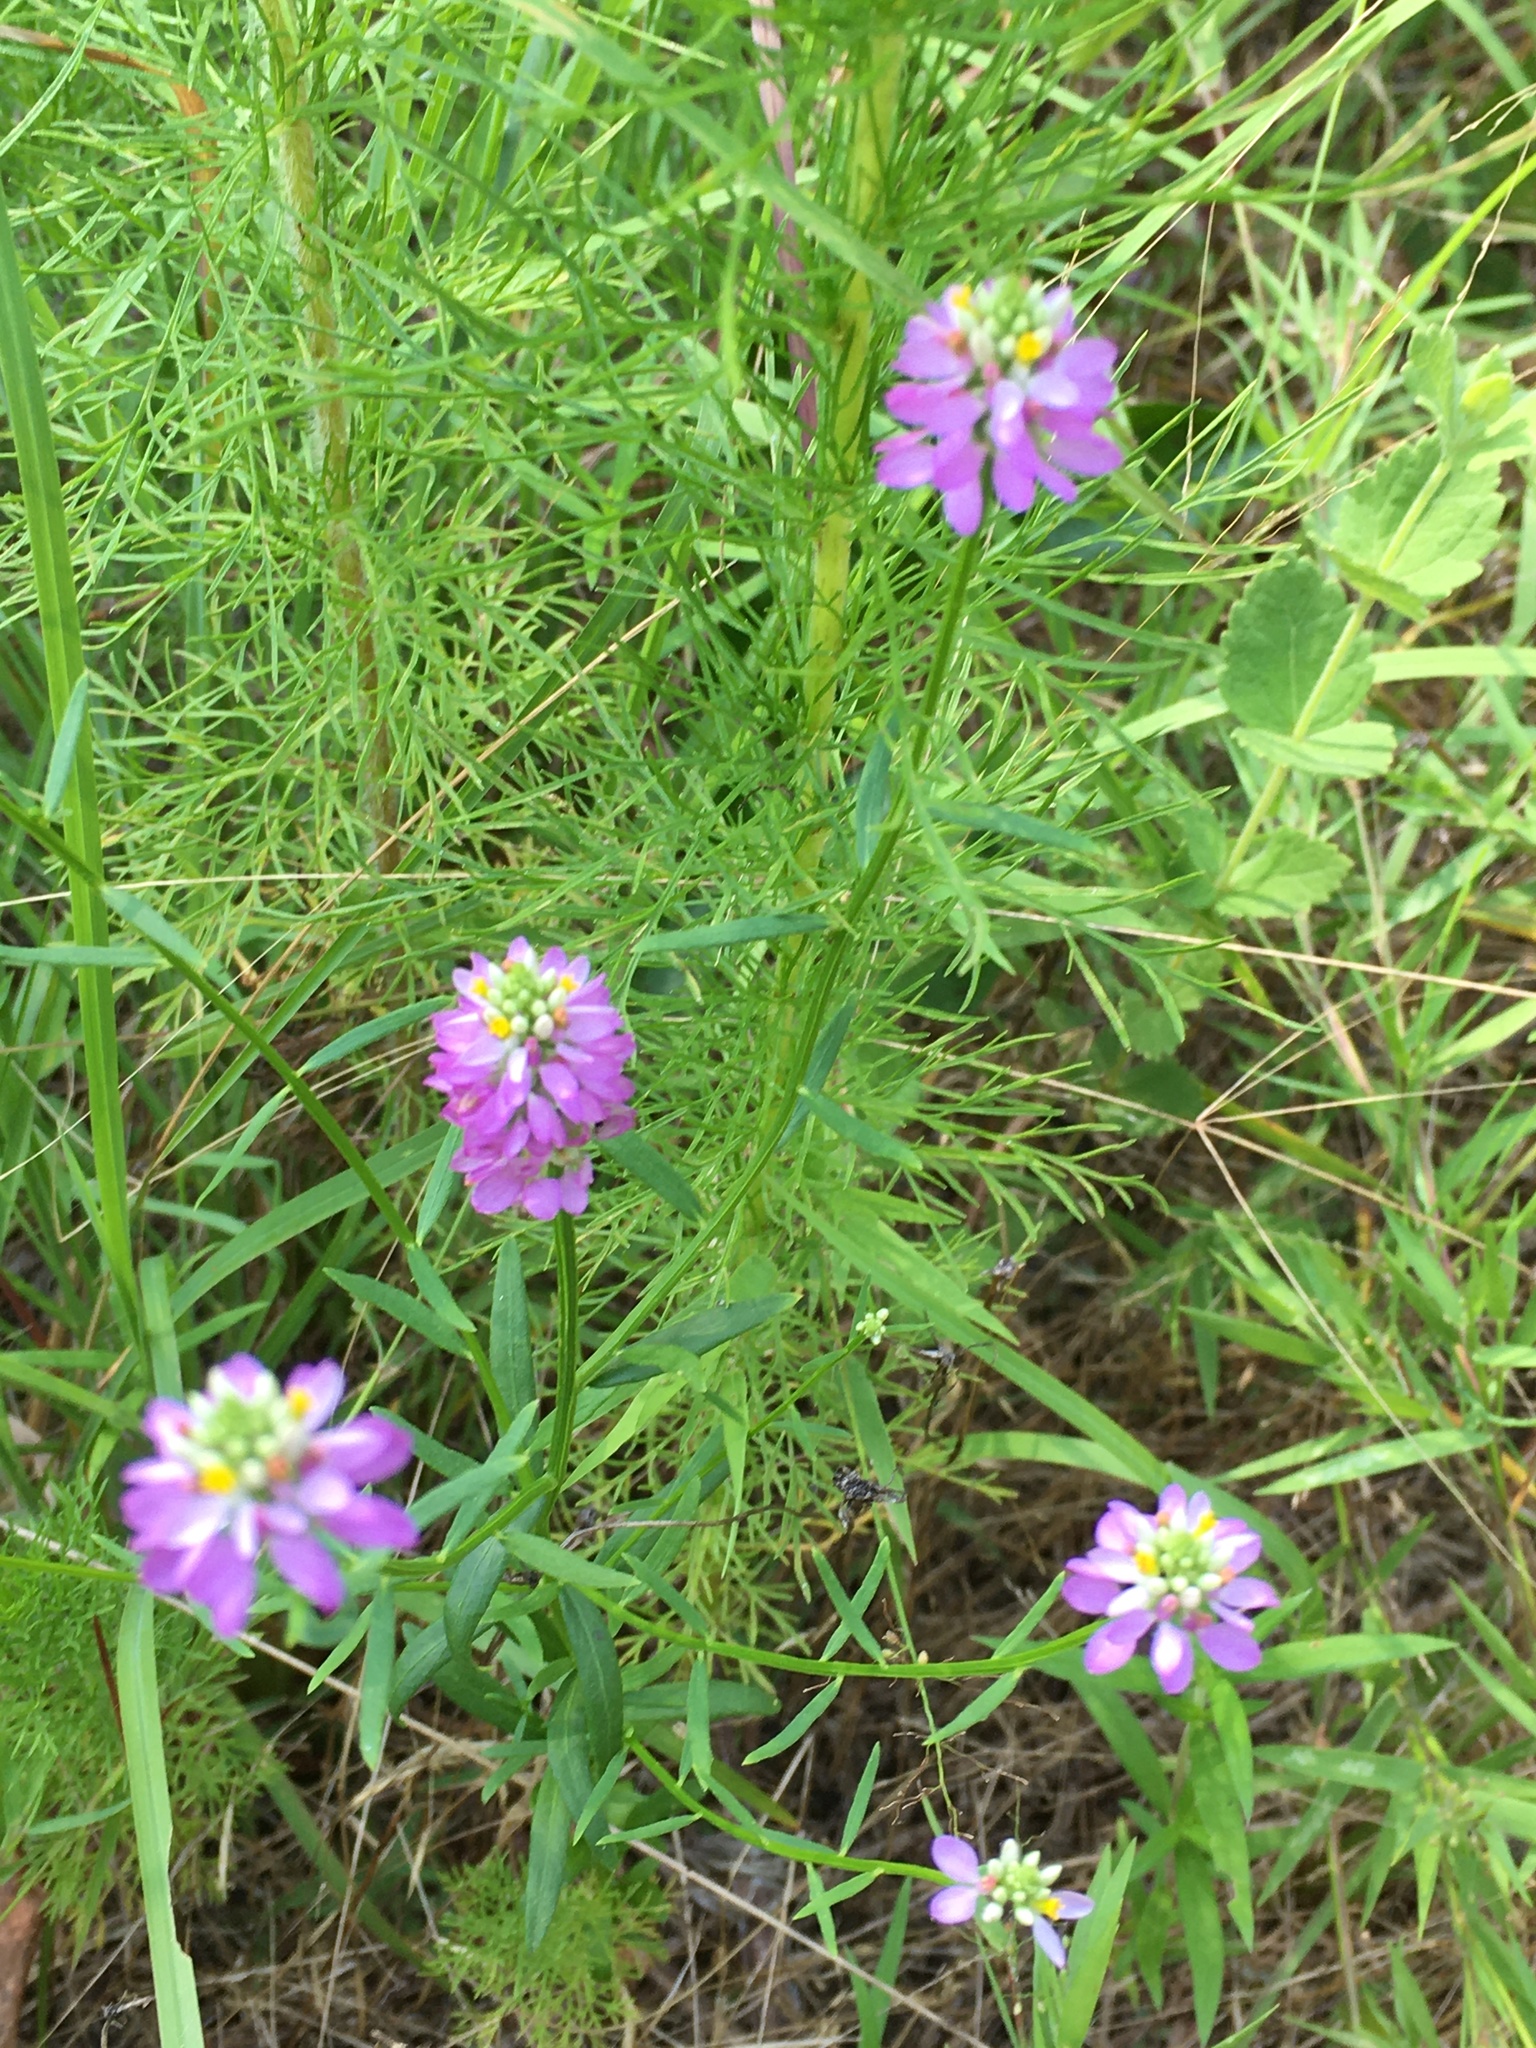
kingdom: Plantae
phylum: Tracheophyta
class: Magnoliopsida
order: Fabales
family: Polygalaceae
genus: Polygala
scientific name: Polygala curtissii
